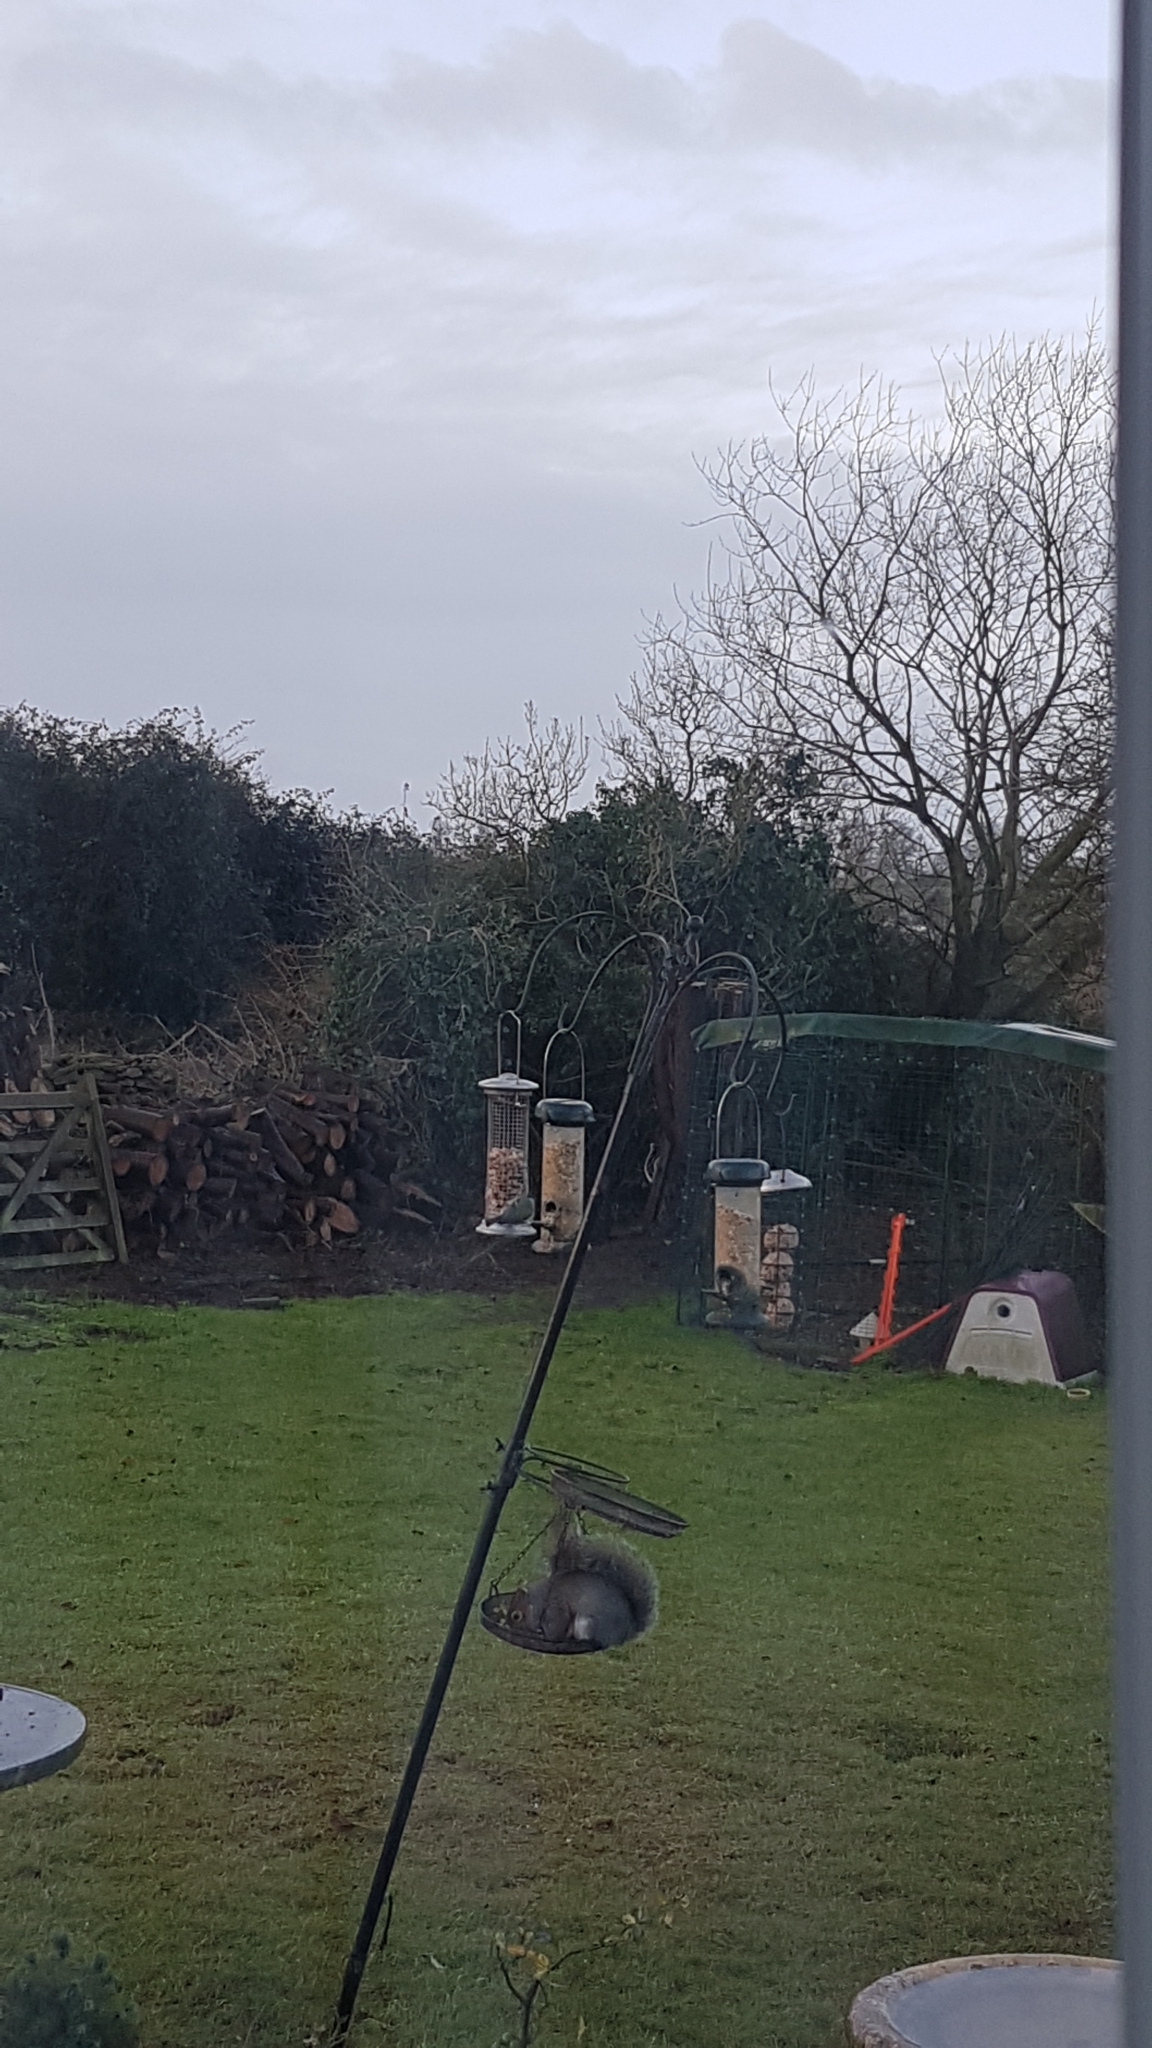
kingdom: Animalia
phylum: Chordata
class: Aves
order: Passeriformes
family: Paridae
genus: Cyanistes
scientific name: Cyanistes caeruleus
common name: Eurasian blue tit
